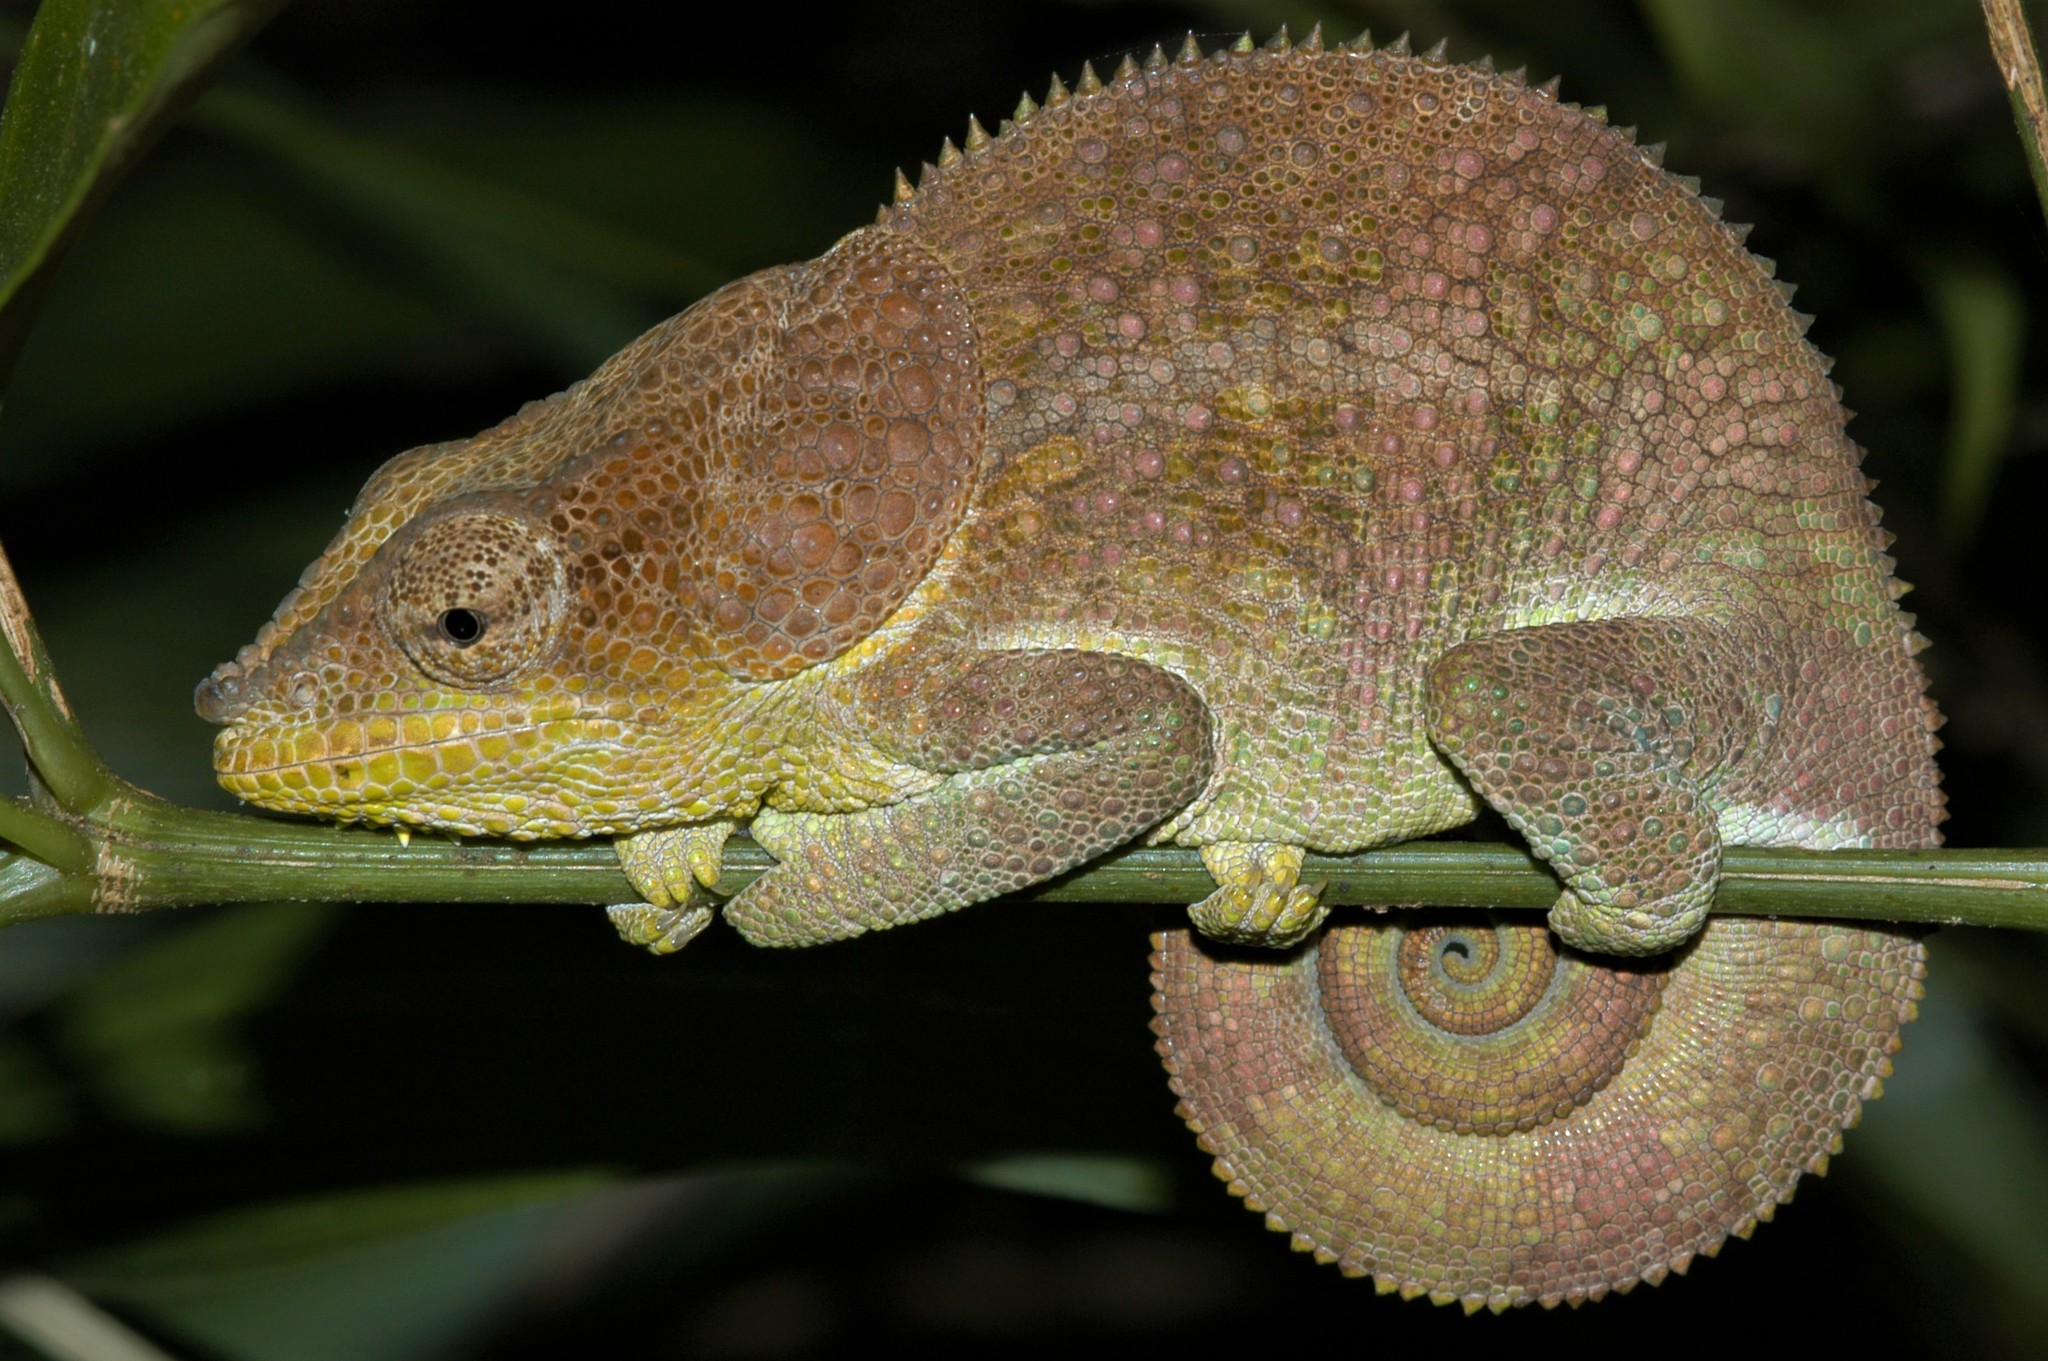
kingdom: Animalia
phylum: Chordata
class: Squamata
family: Chamaeleonidae
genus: Calumma
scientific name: Calumma amber
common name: Amber mountain chameleon
